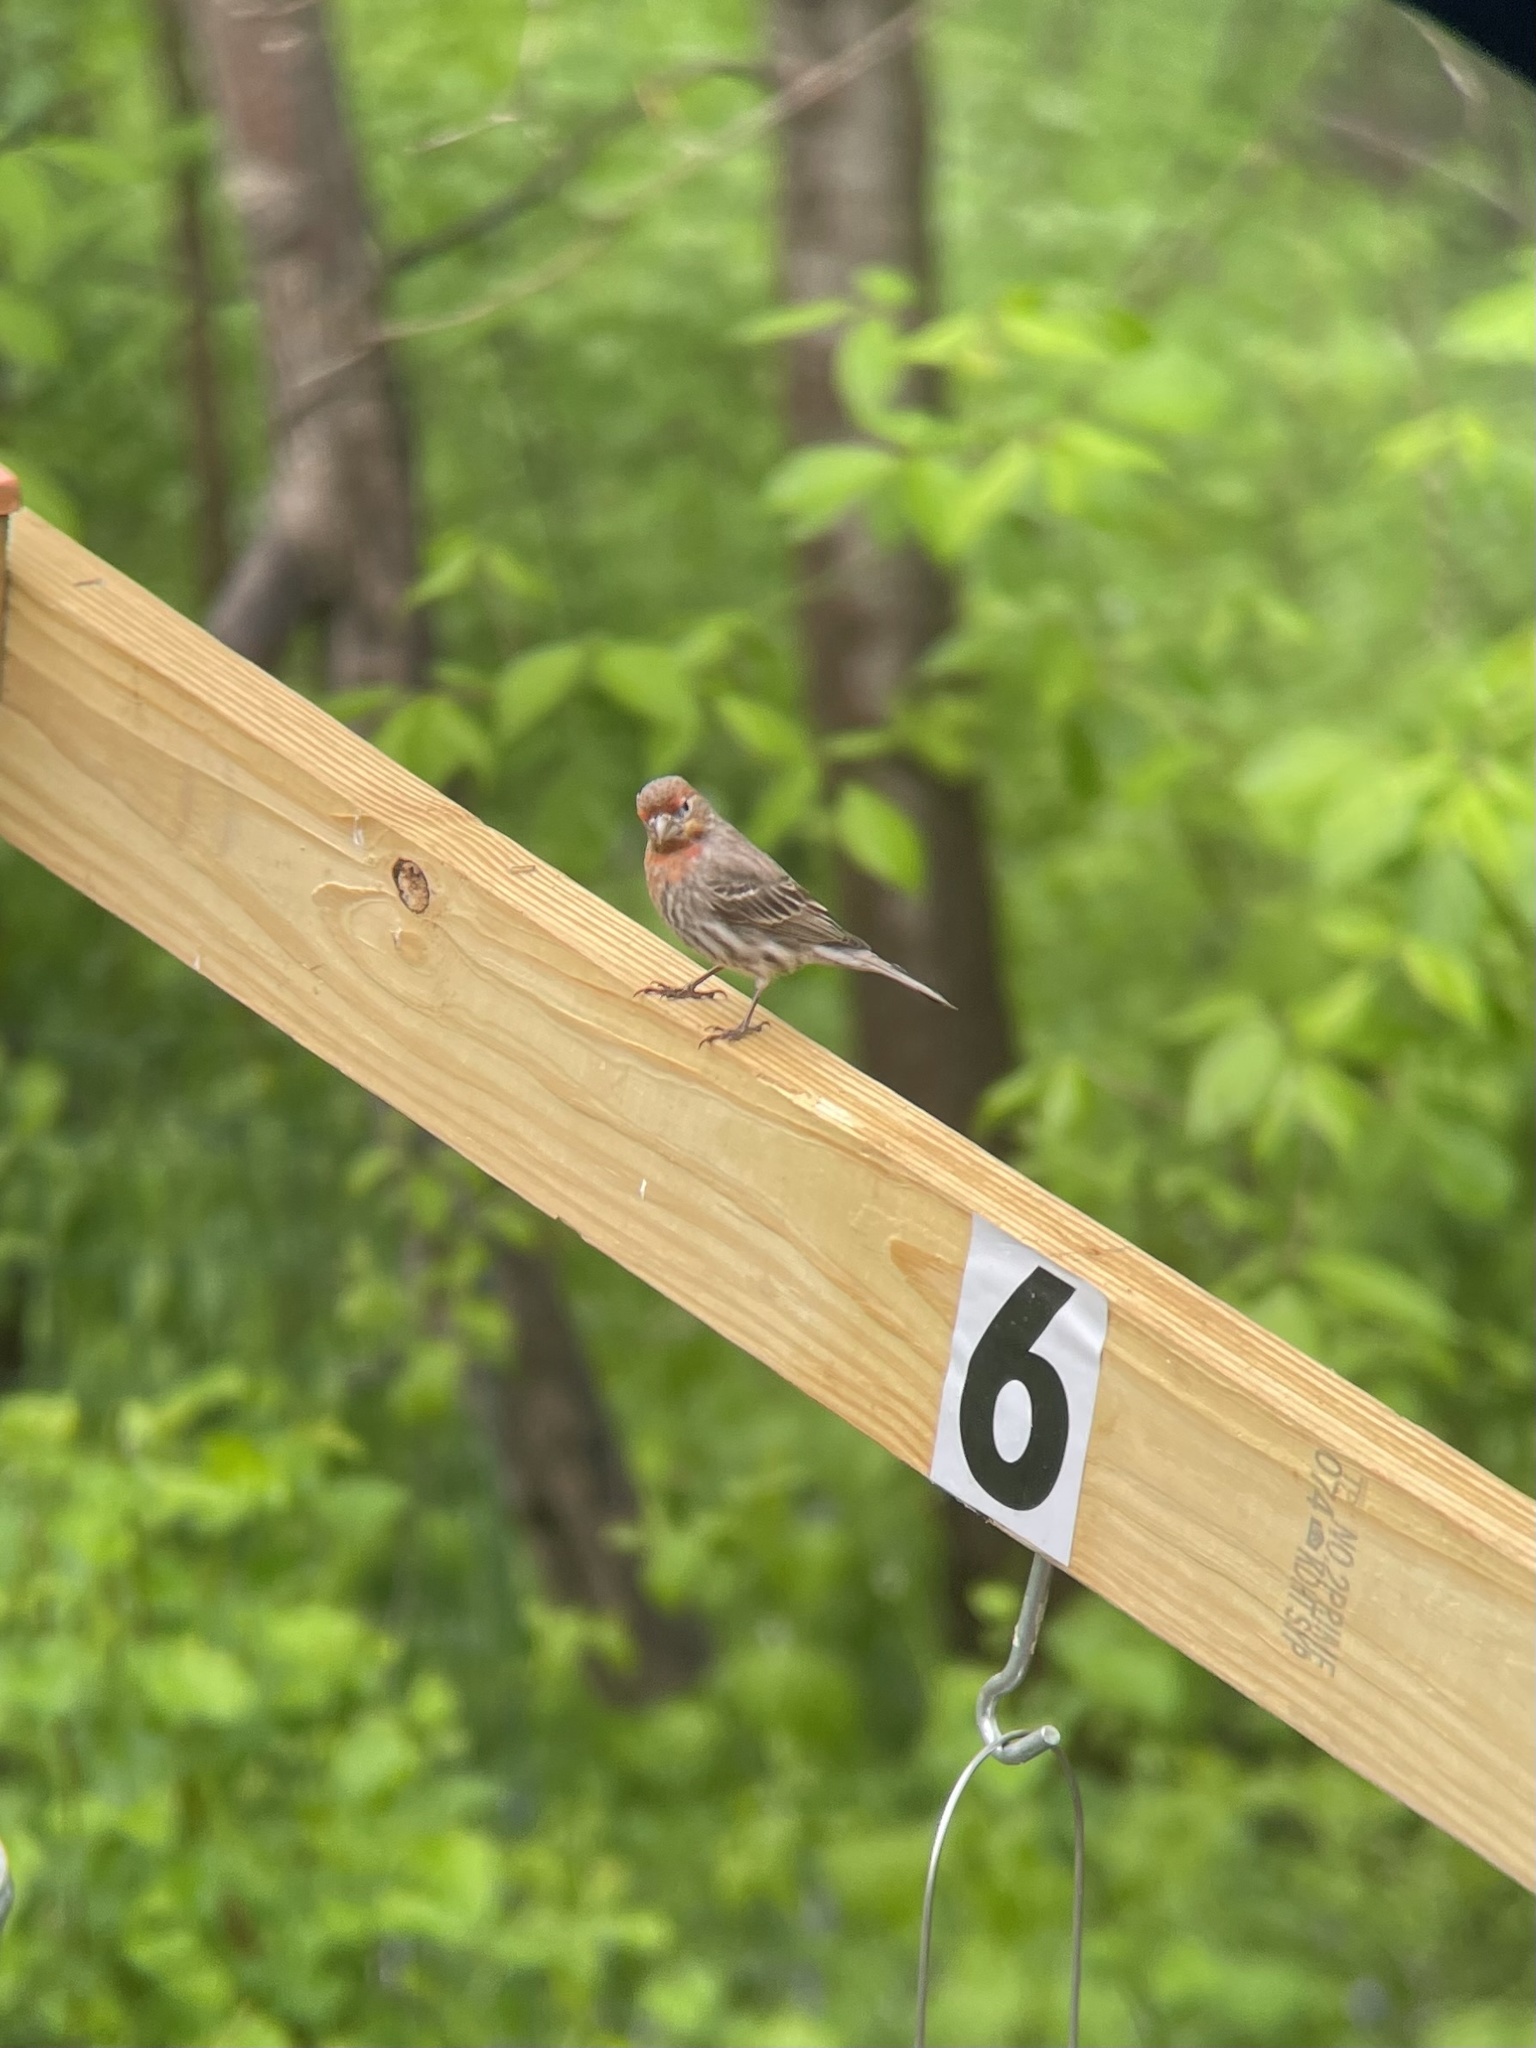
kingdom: Animalia
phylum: Chordata
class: Aves
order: Passeriformes
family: Fringillidae
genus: Haemorhous
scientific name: Haemorhous mexicanus
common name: House finch
